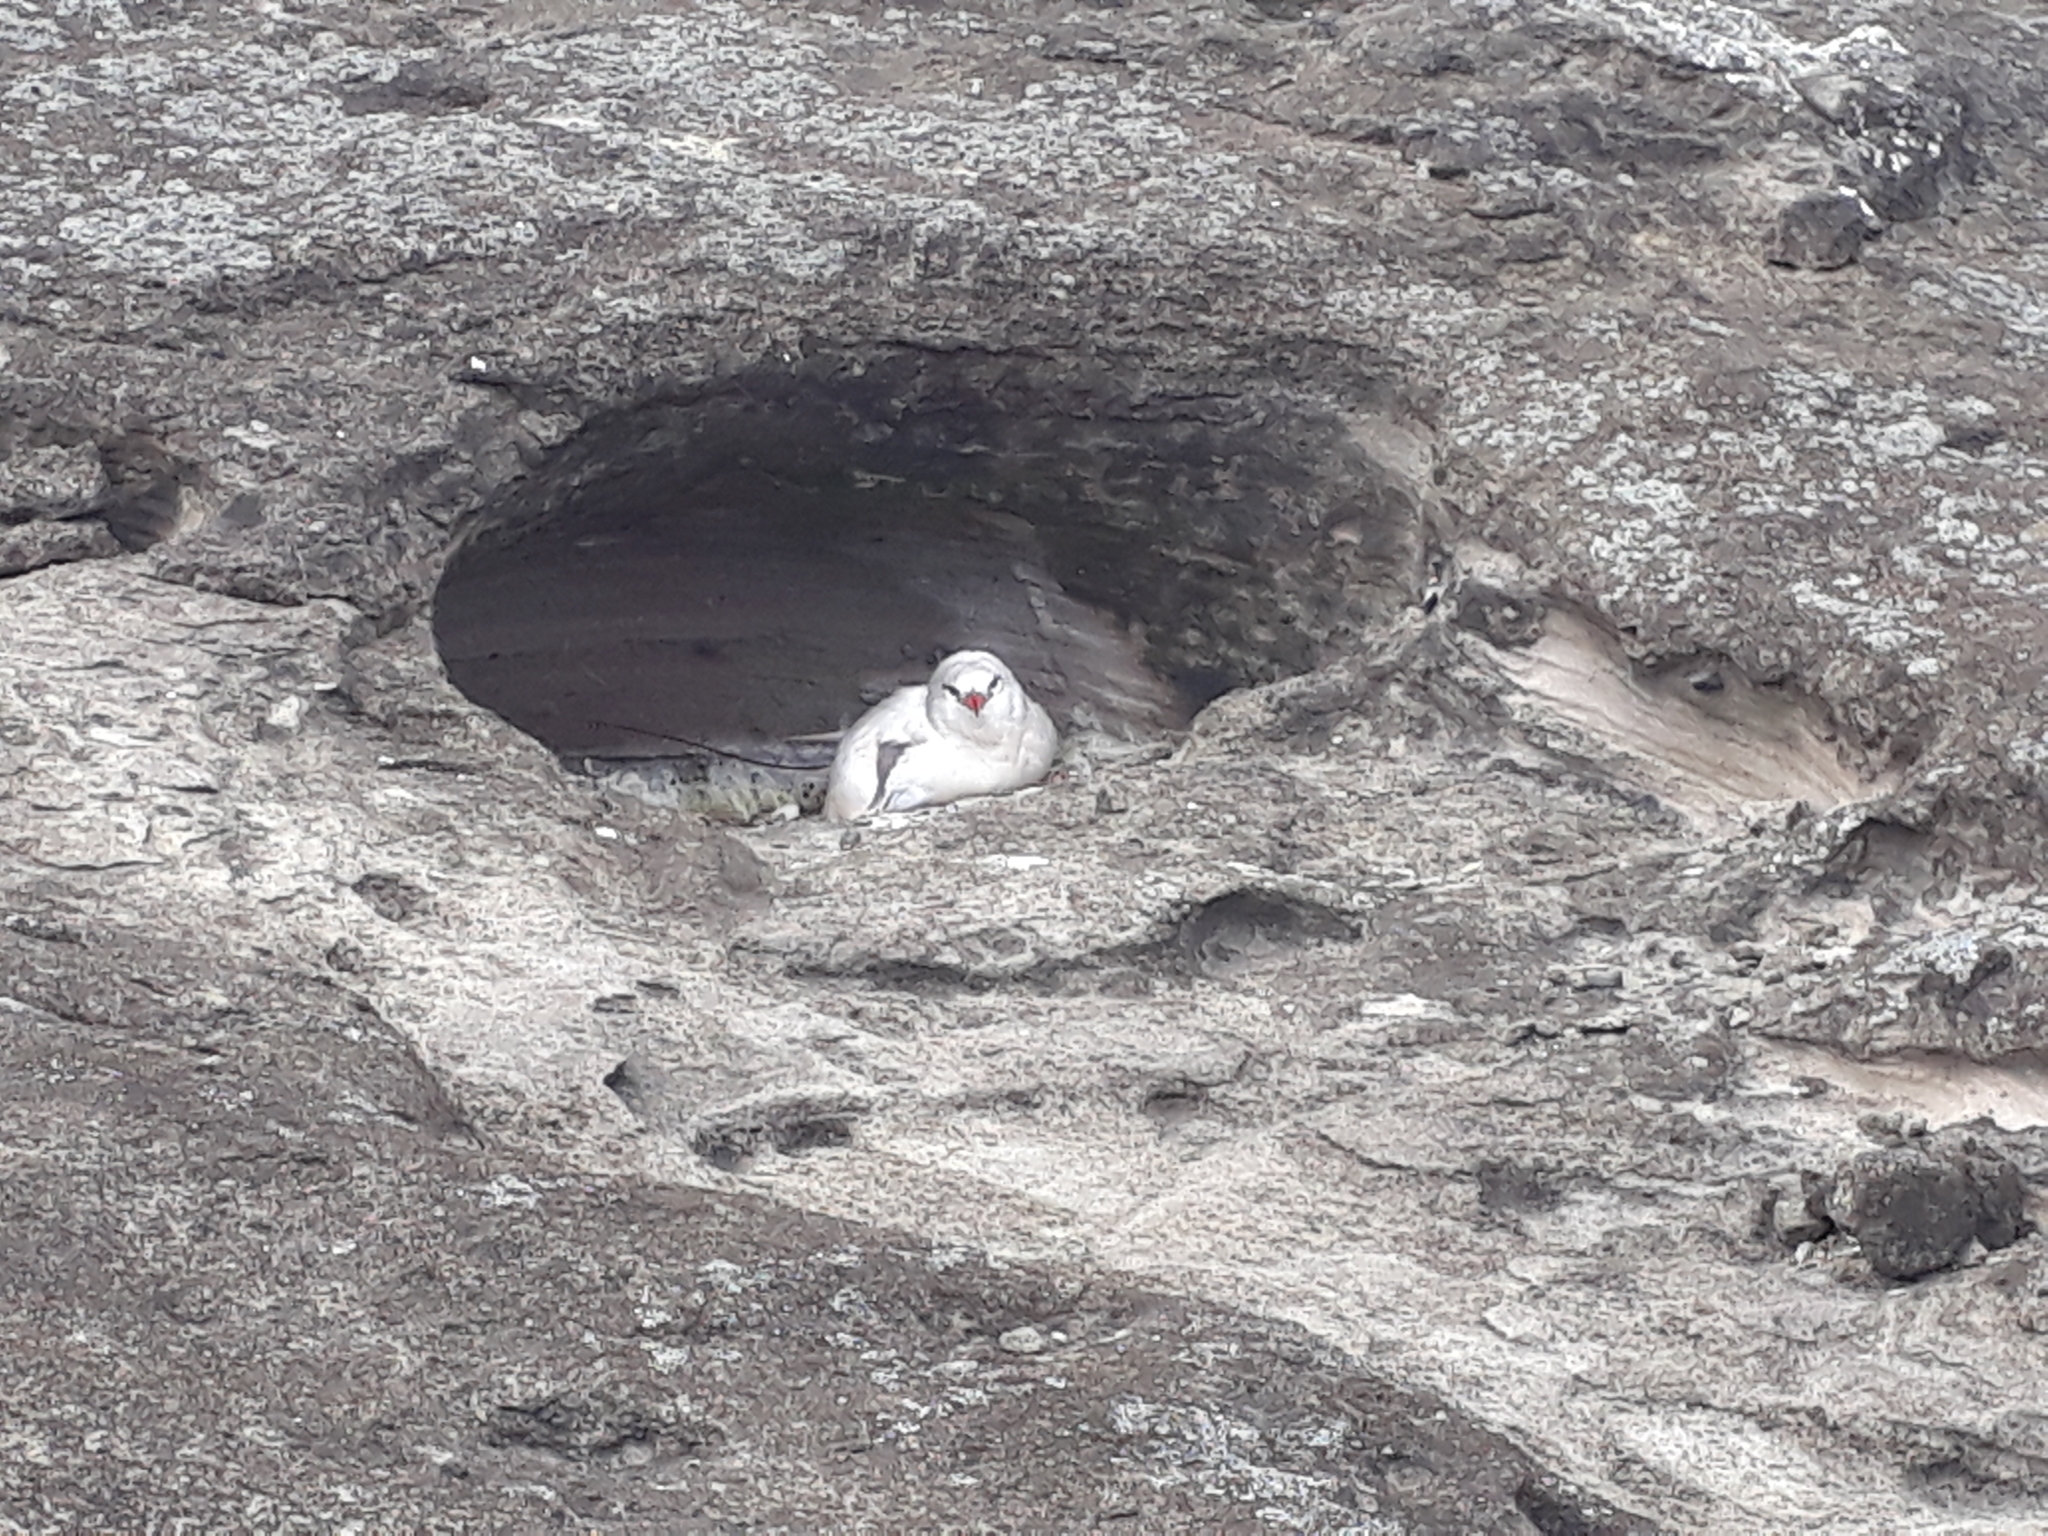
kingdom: Animalia
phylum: Chordata
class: Aves
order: Phaethontiformes
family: Phaethontidae
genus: Phaethon
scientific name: Phaethon rubricauda
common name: Red-tailed tropicbird
